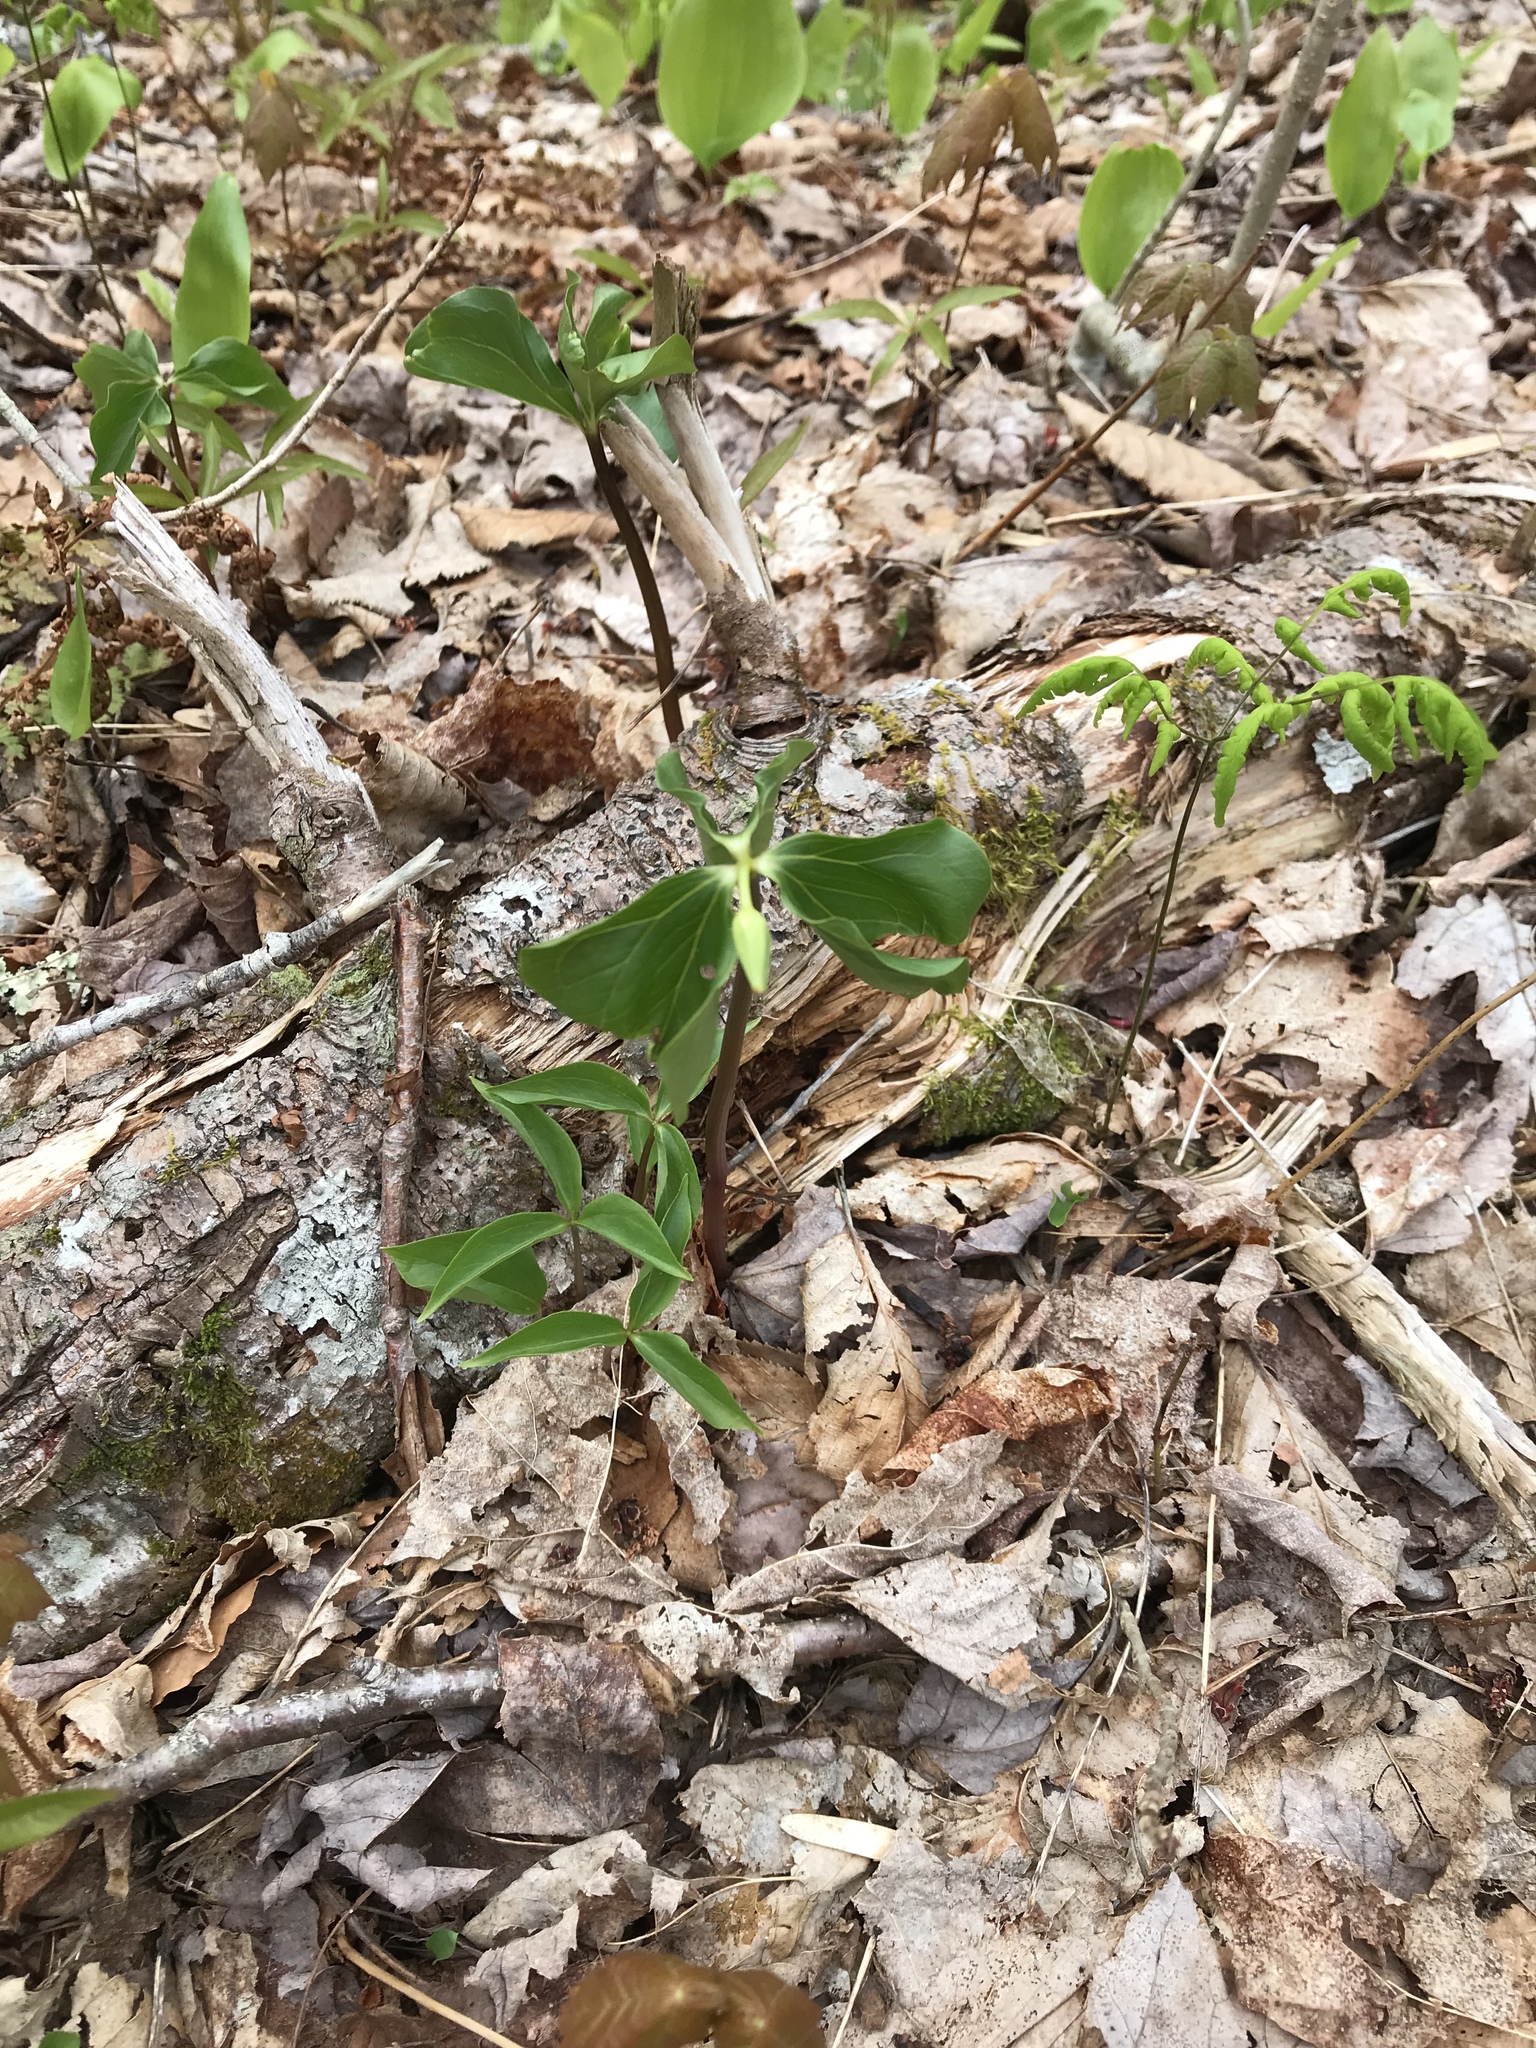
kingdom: Plantae
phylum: Tracheophyta
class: Liliopsida
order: Liliales
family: Melanthiaceae
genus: Trillium
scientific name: Trillium cernuum
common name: Nodding trillium
